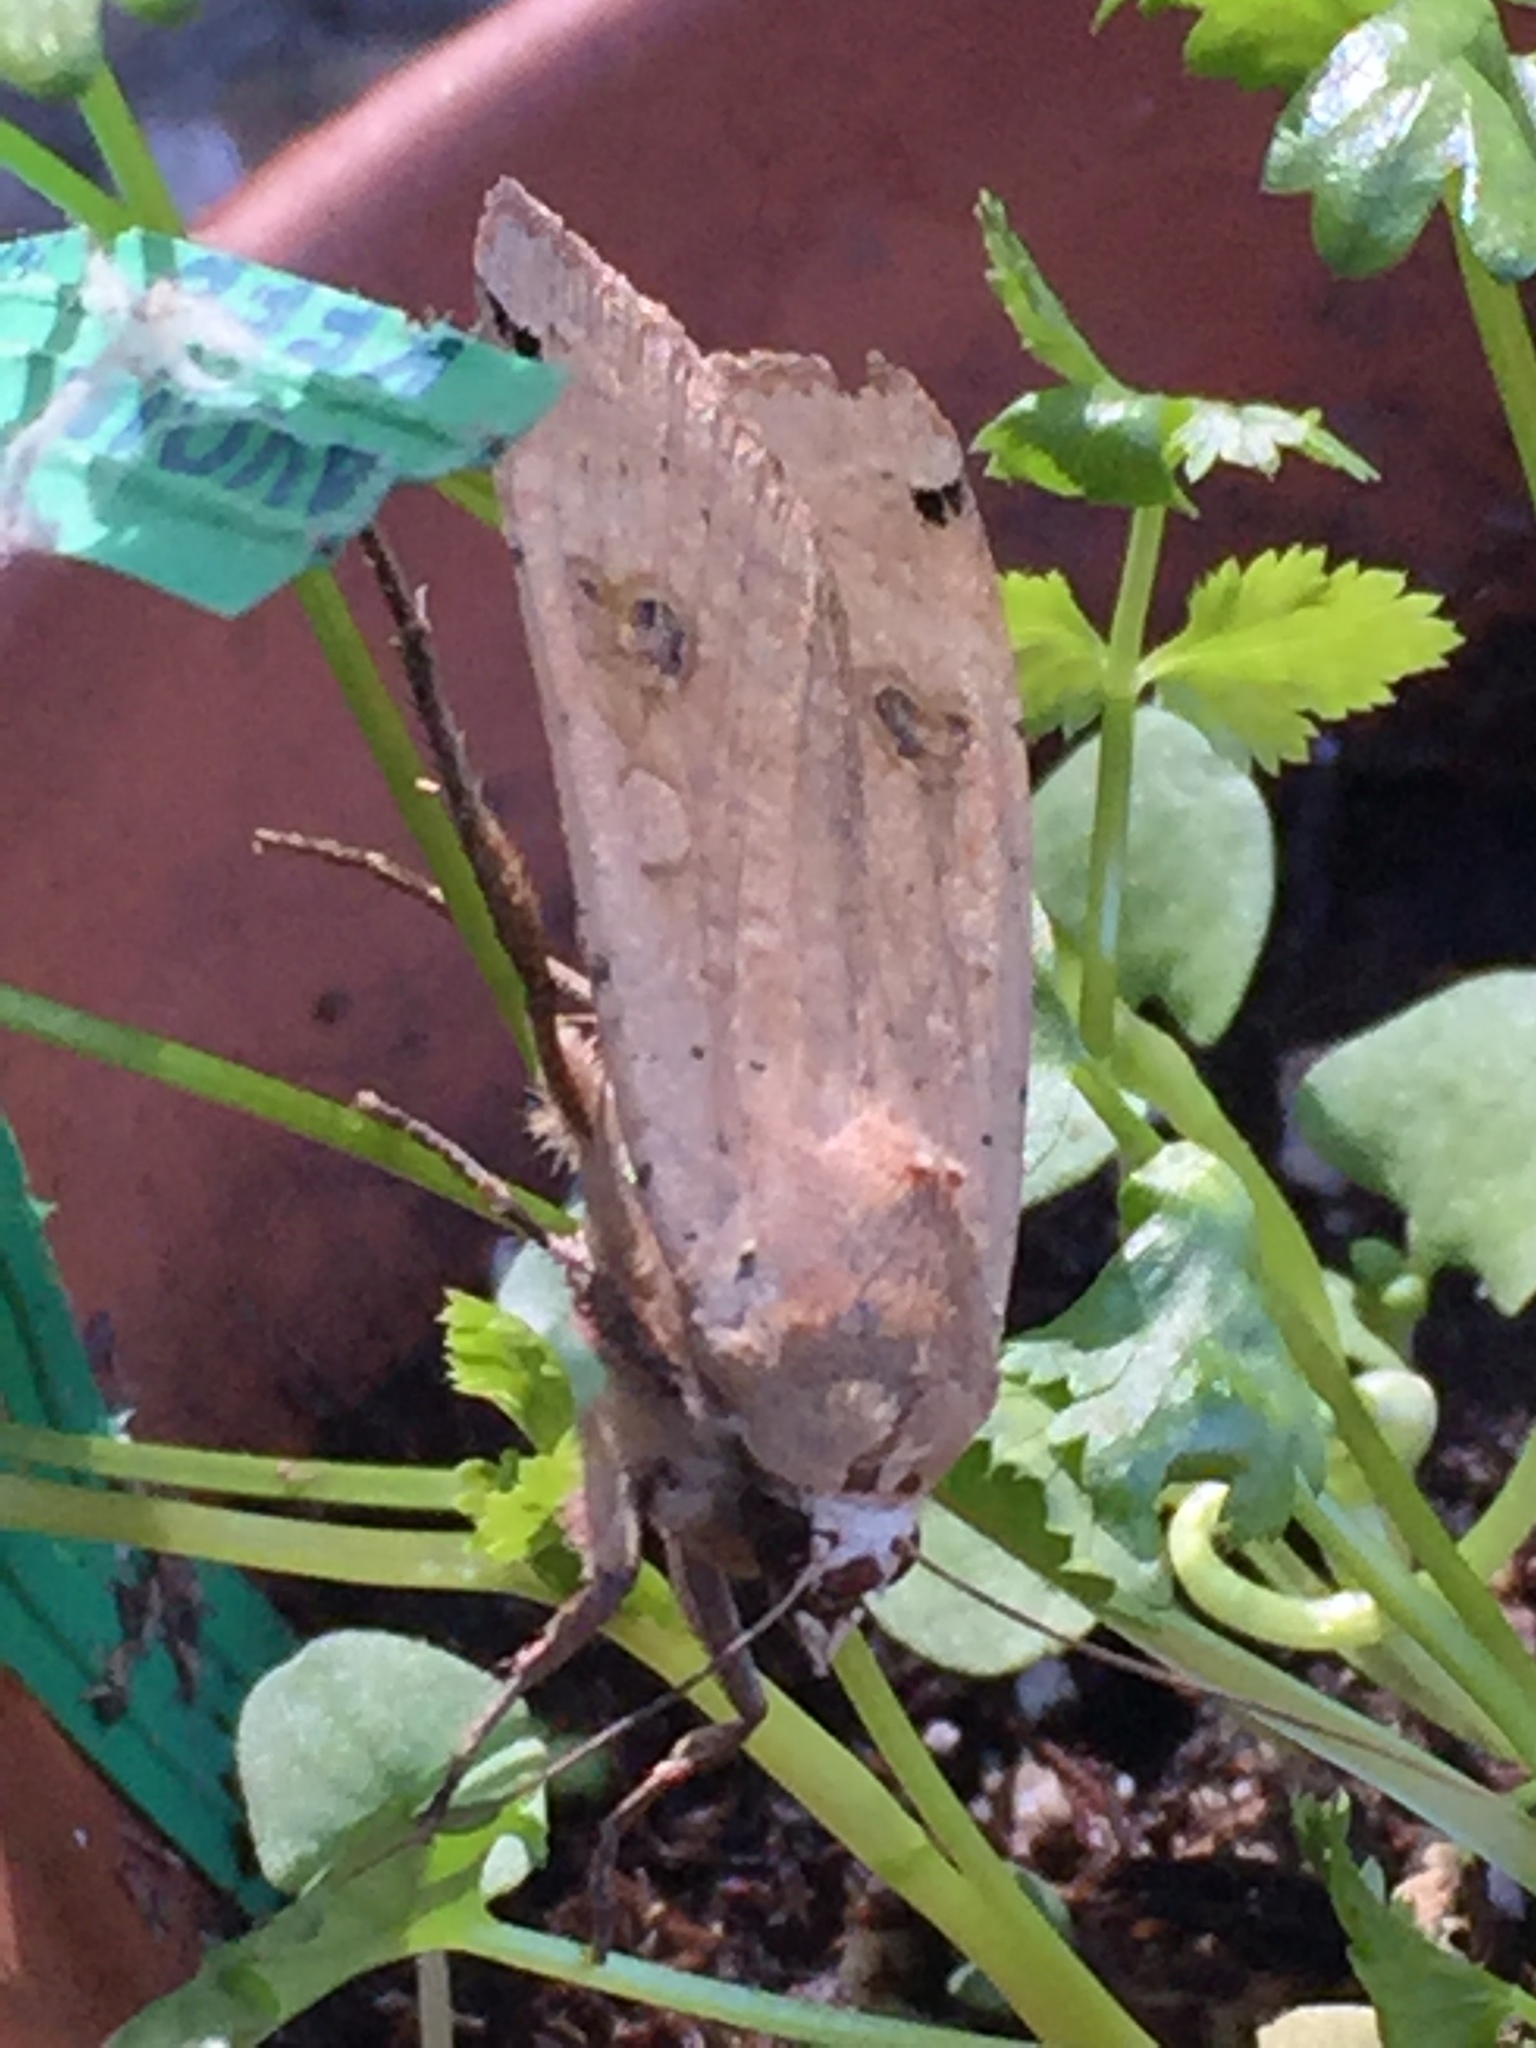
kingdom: Animalia
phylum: Arthropoda
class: Insecta
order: Lepidoptera
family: Noctuidae
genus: Noctua
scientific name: Noctua pronuba
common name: Large yellow underwing
